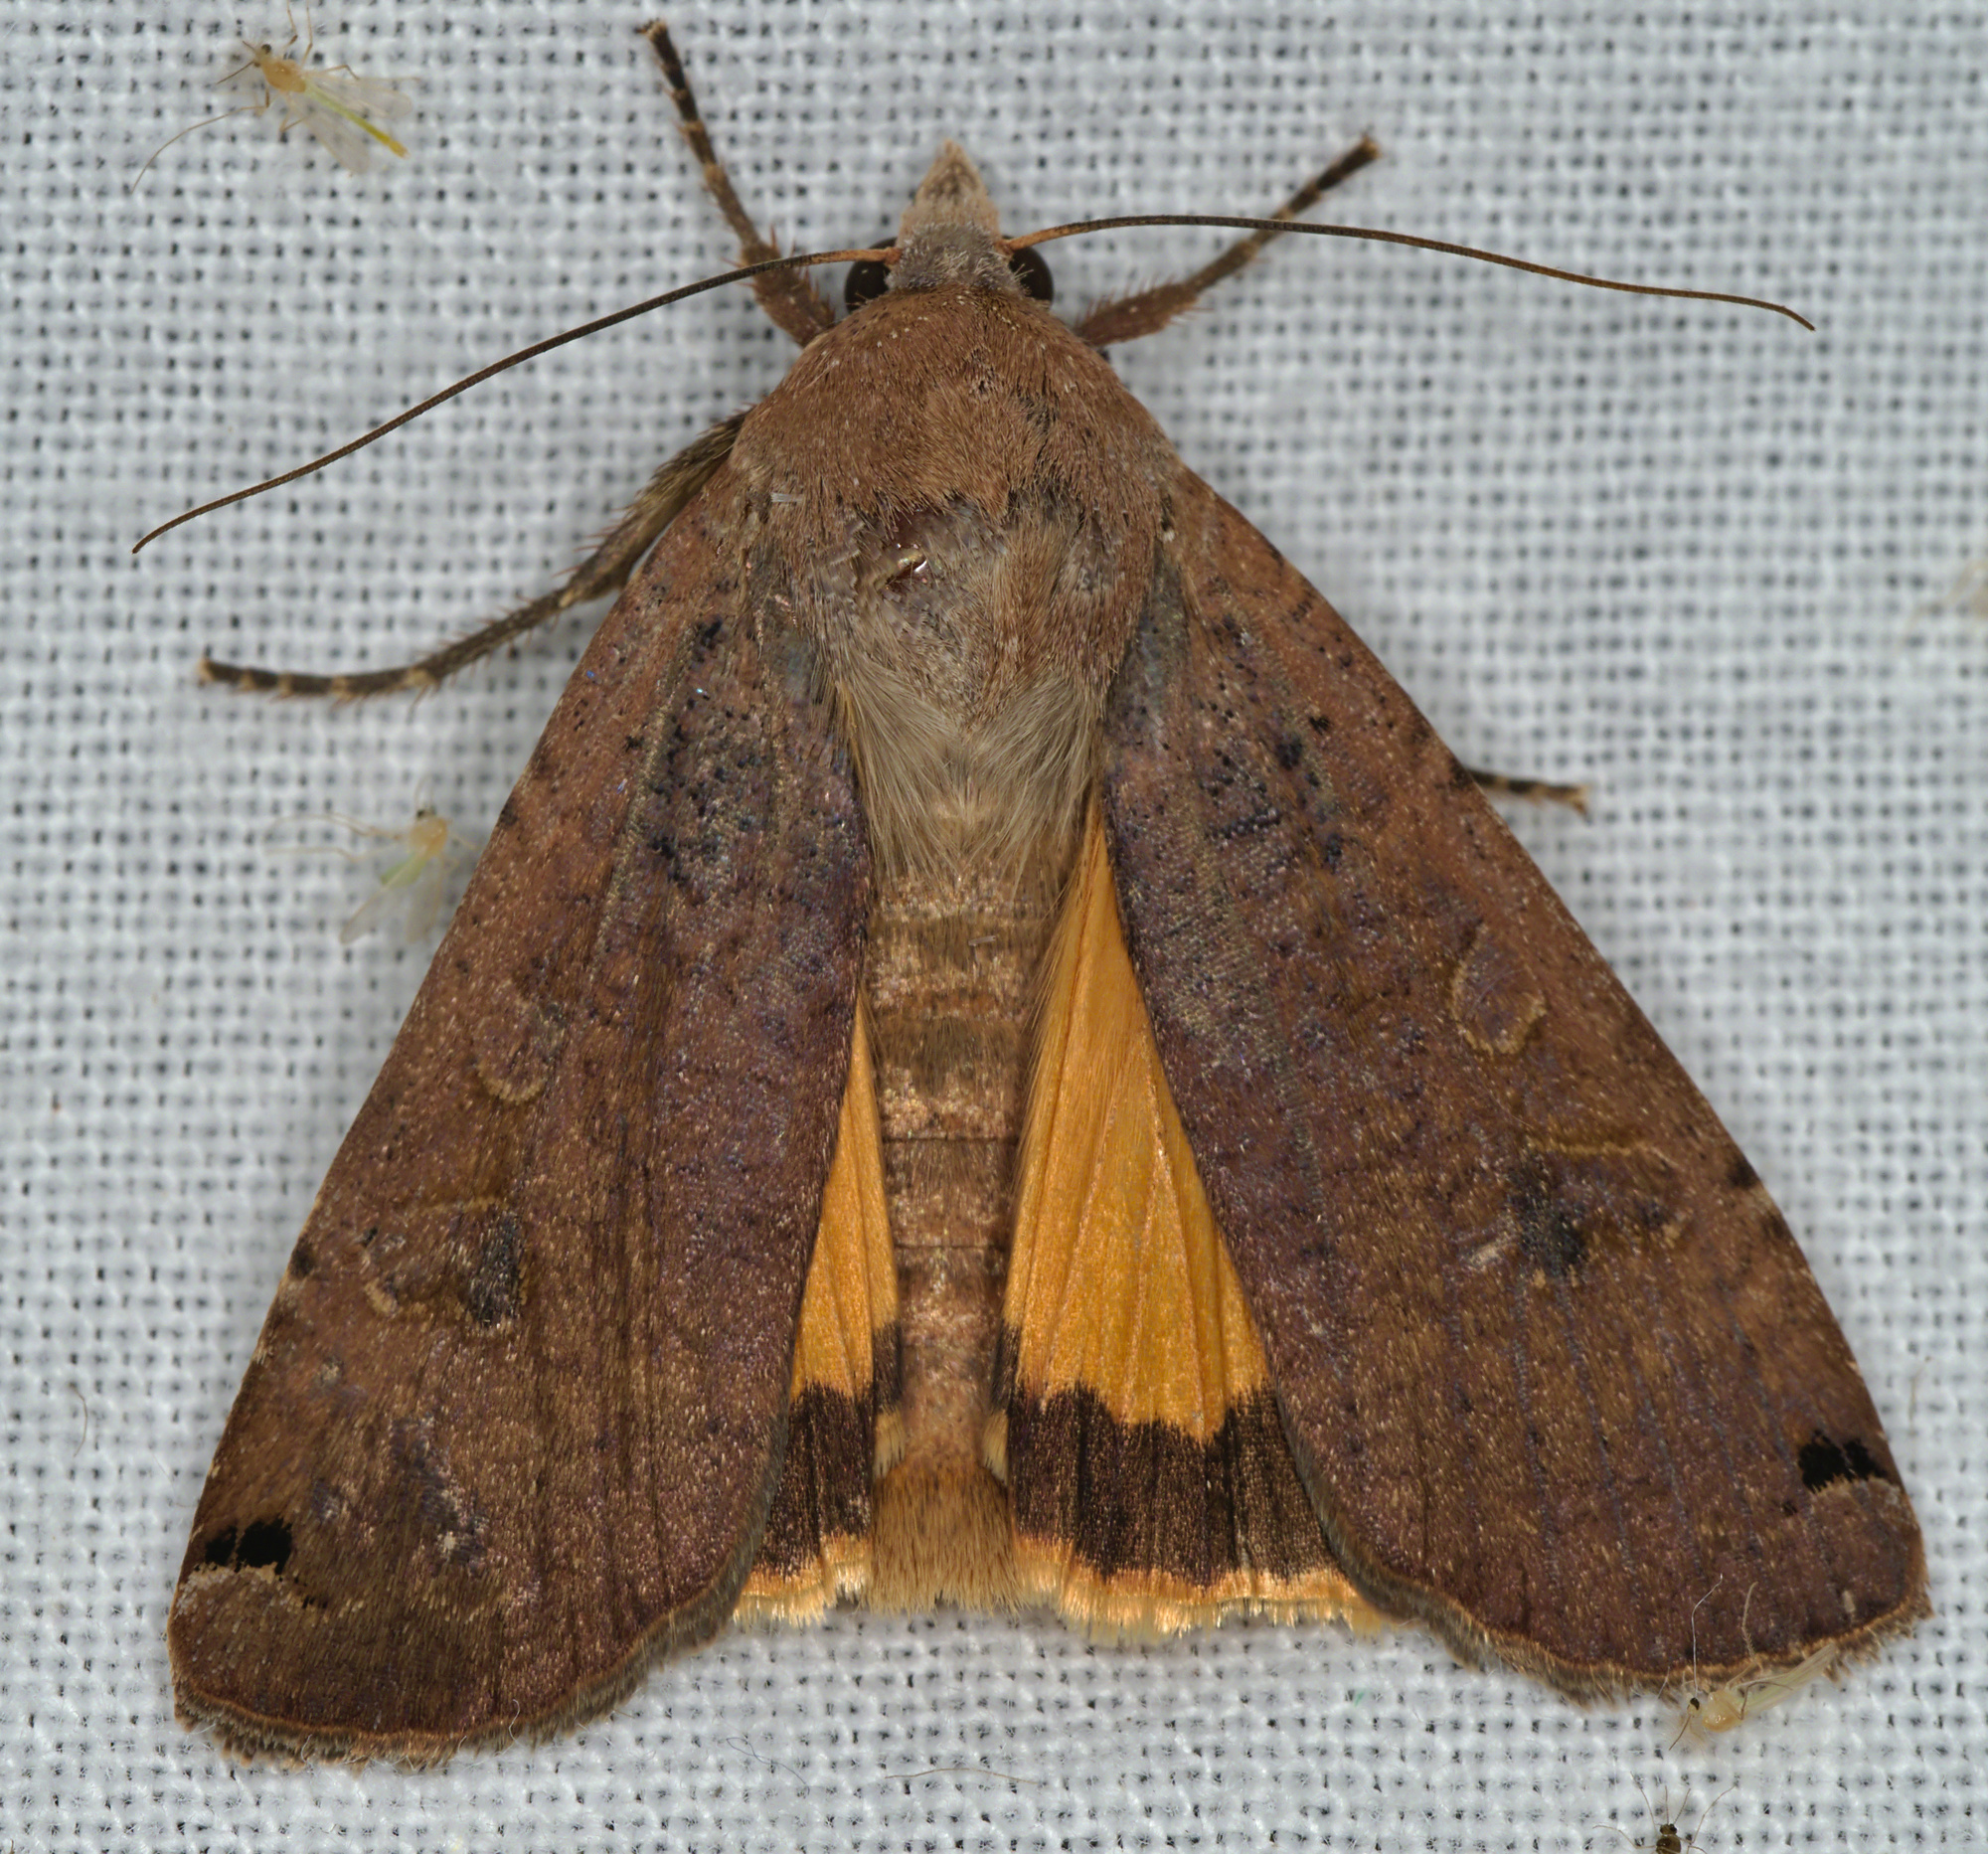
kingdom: Animalia
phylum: Arthropoda
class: Insecta
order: Lepidoptera
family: Noctuidae
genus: Noctua
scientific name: Noctua pronuba
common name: Large yellow underwing
